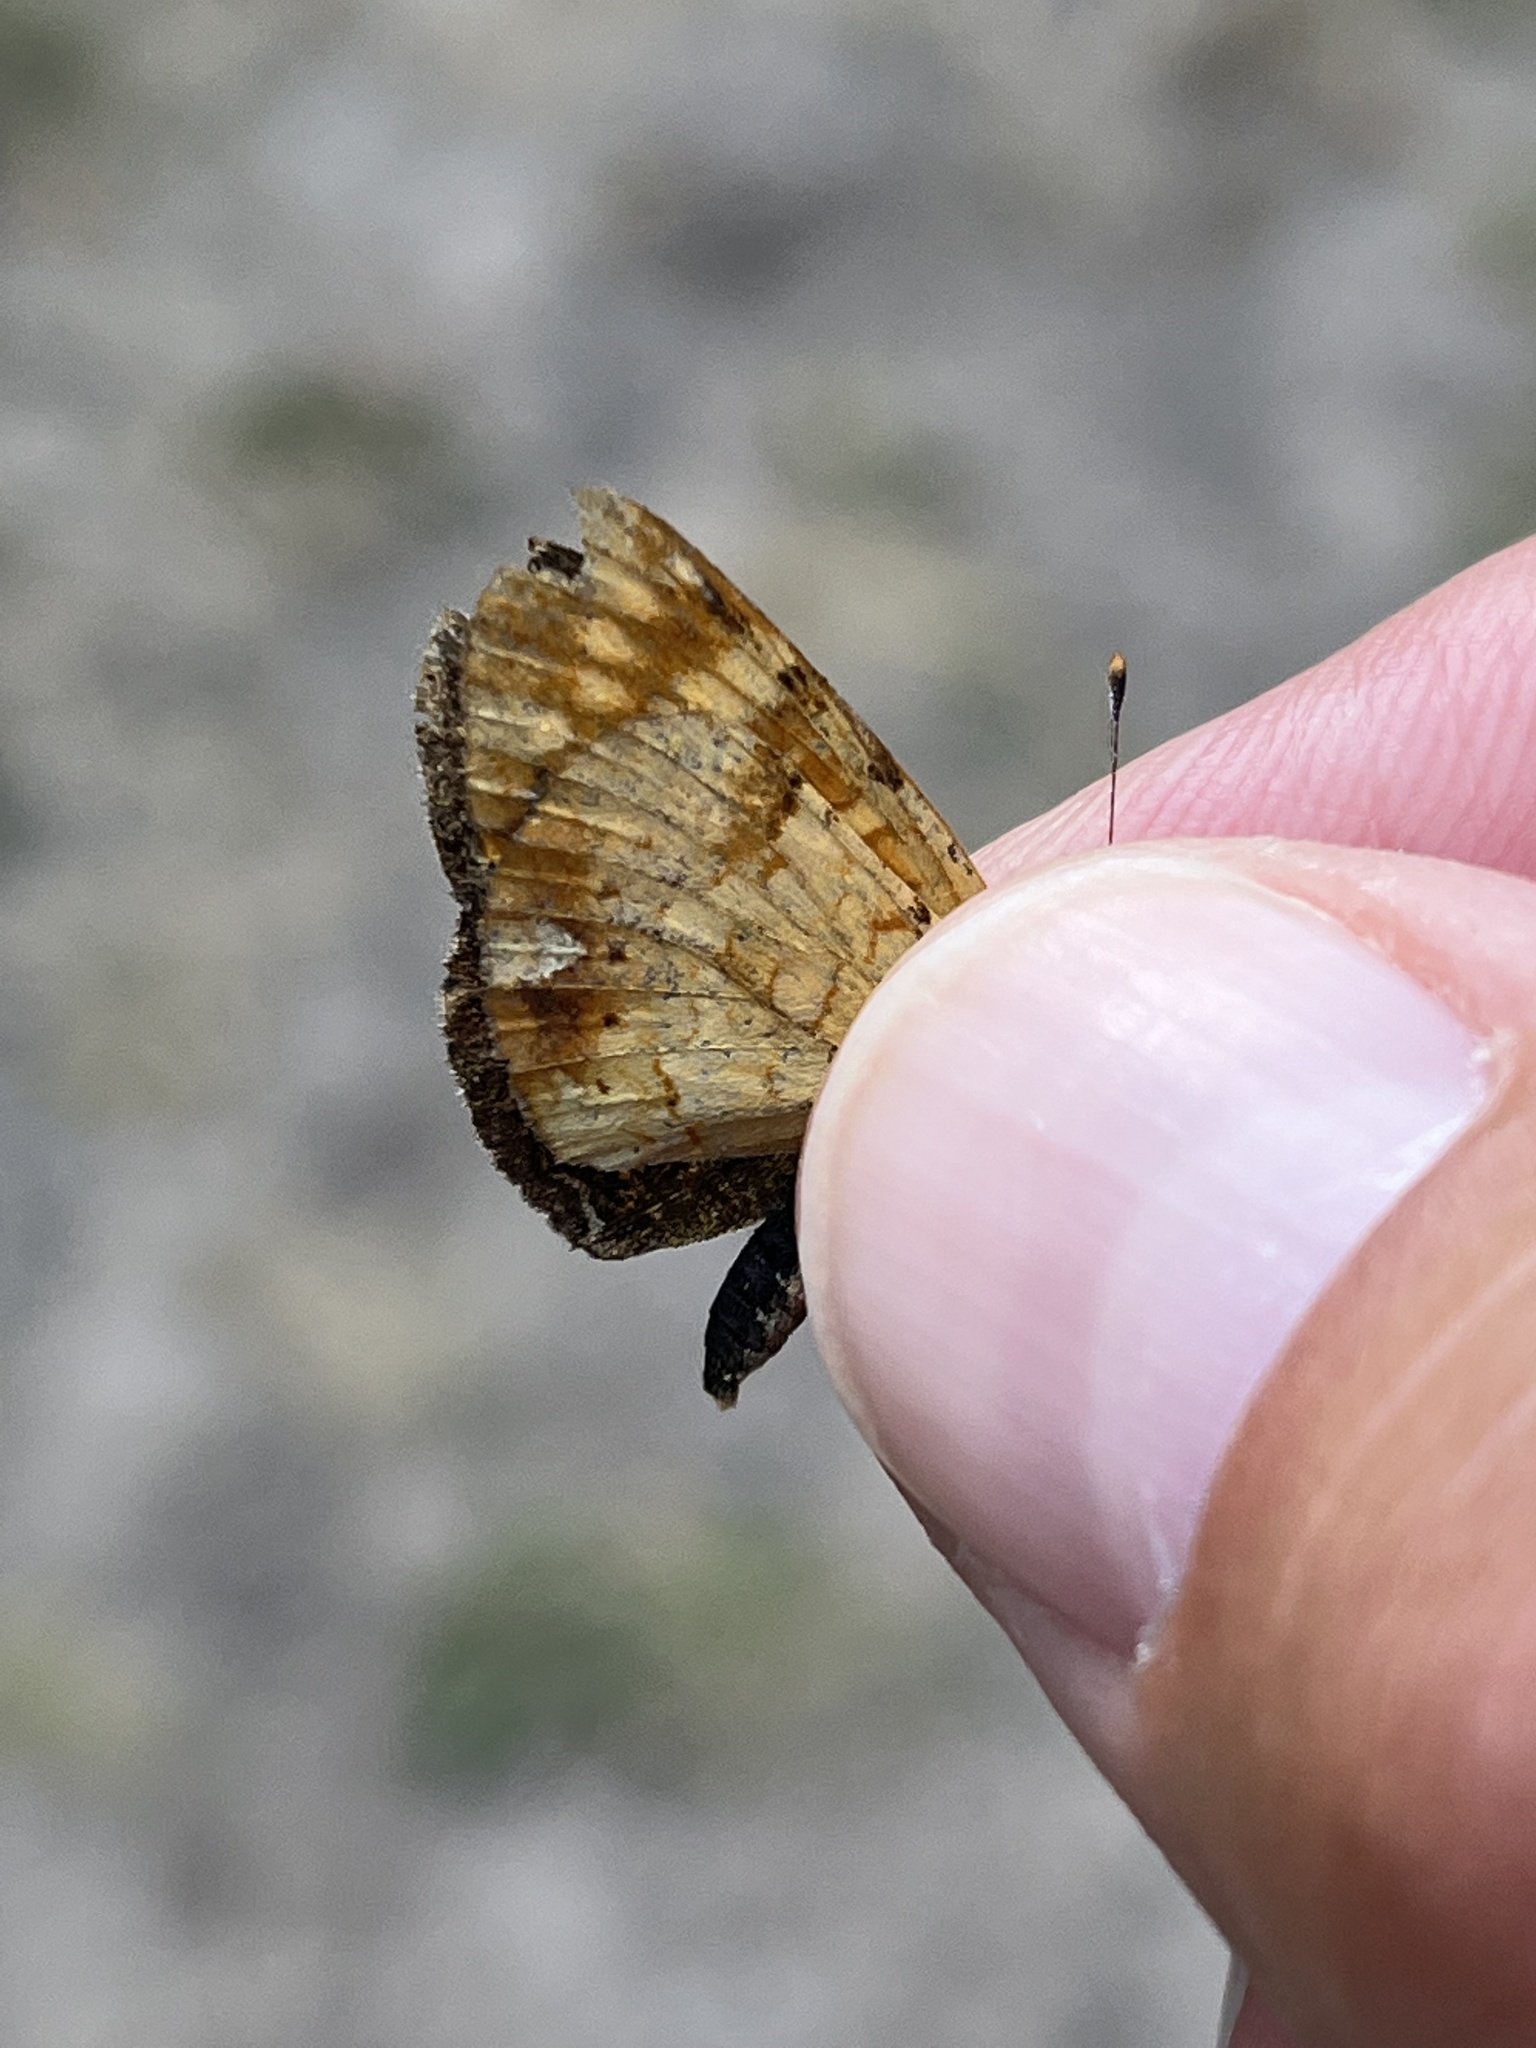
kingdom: Animalia
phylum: Arthropoda
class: Insecta
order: Lepidoptera
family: Nymphalidae
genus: Phyciodes
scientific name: Phyciodes tharos
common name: Pearl crescent
